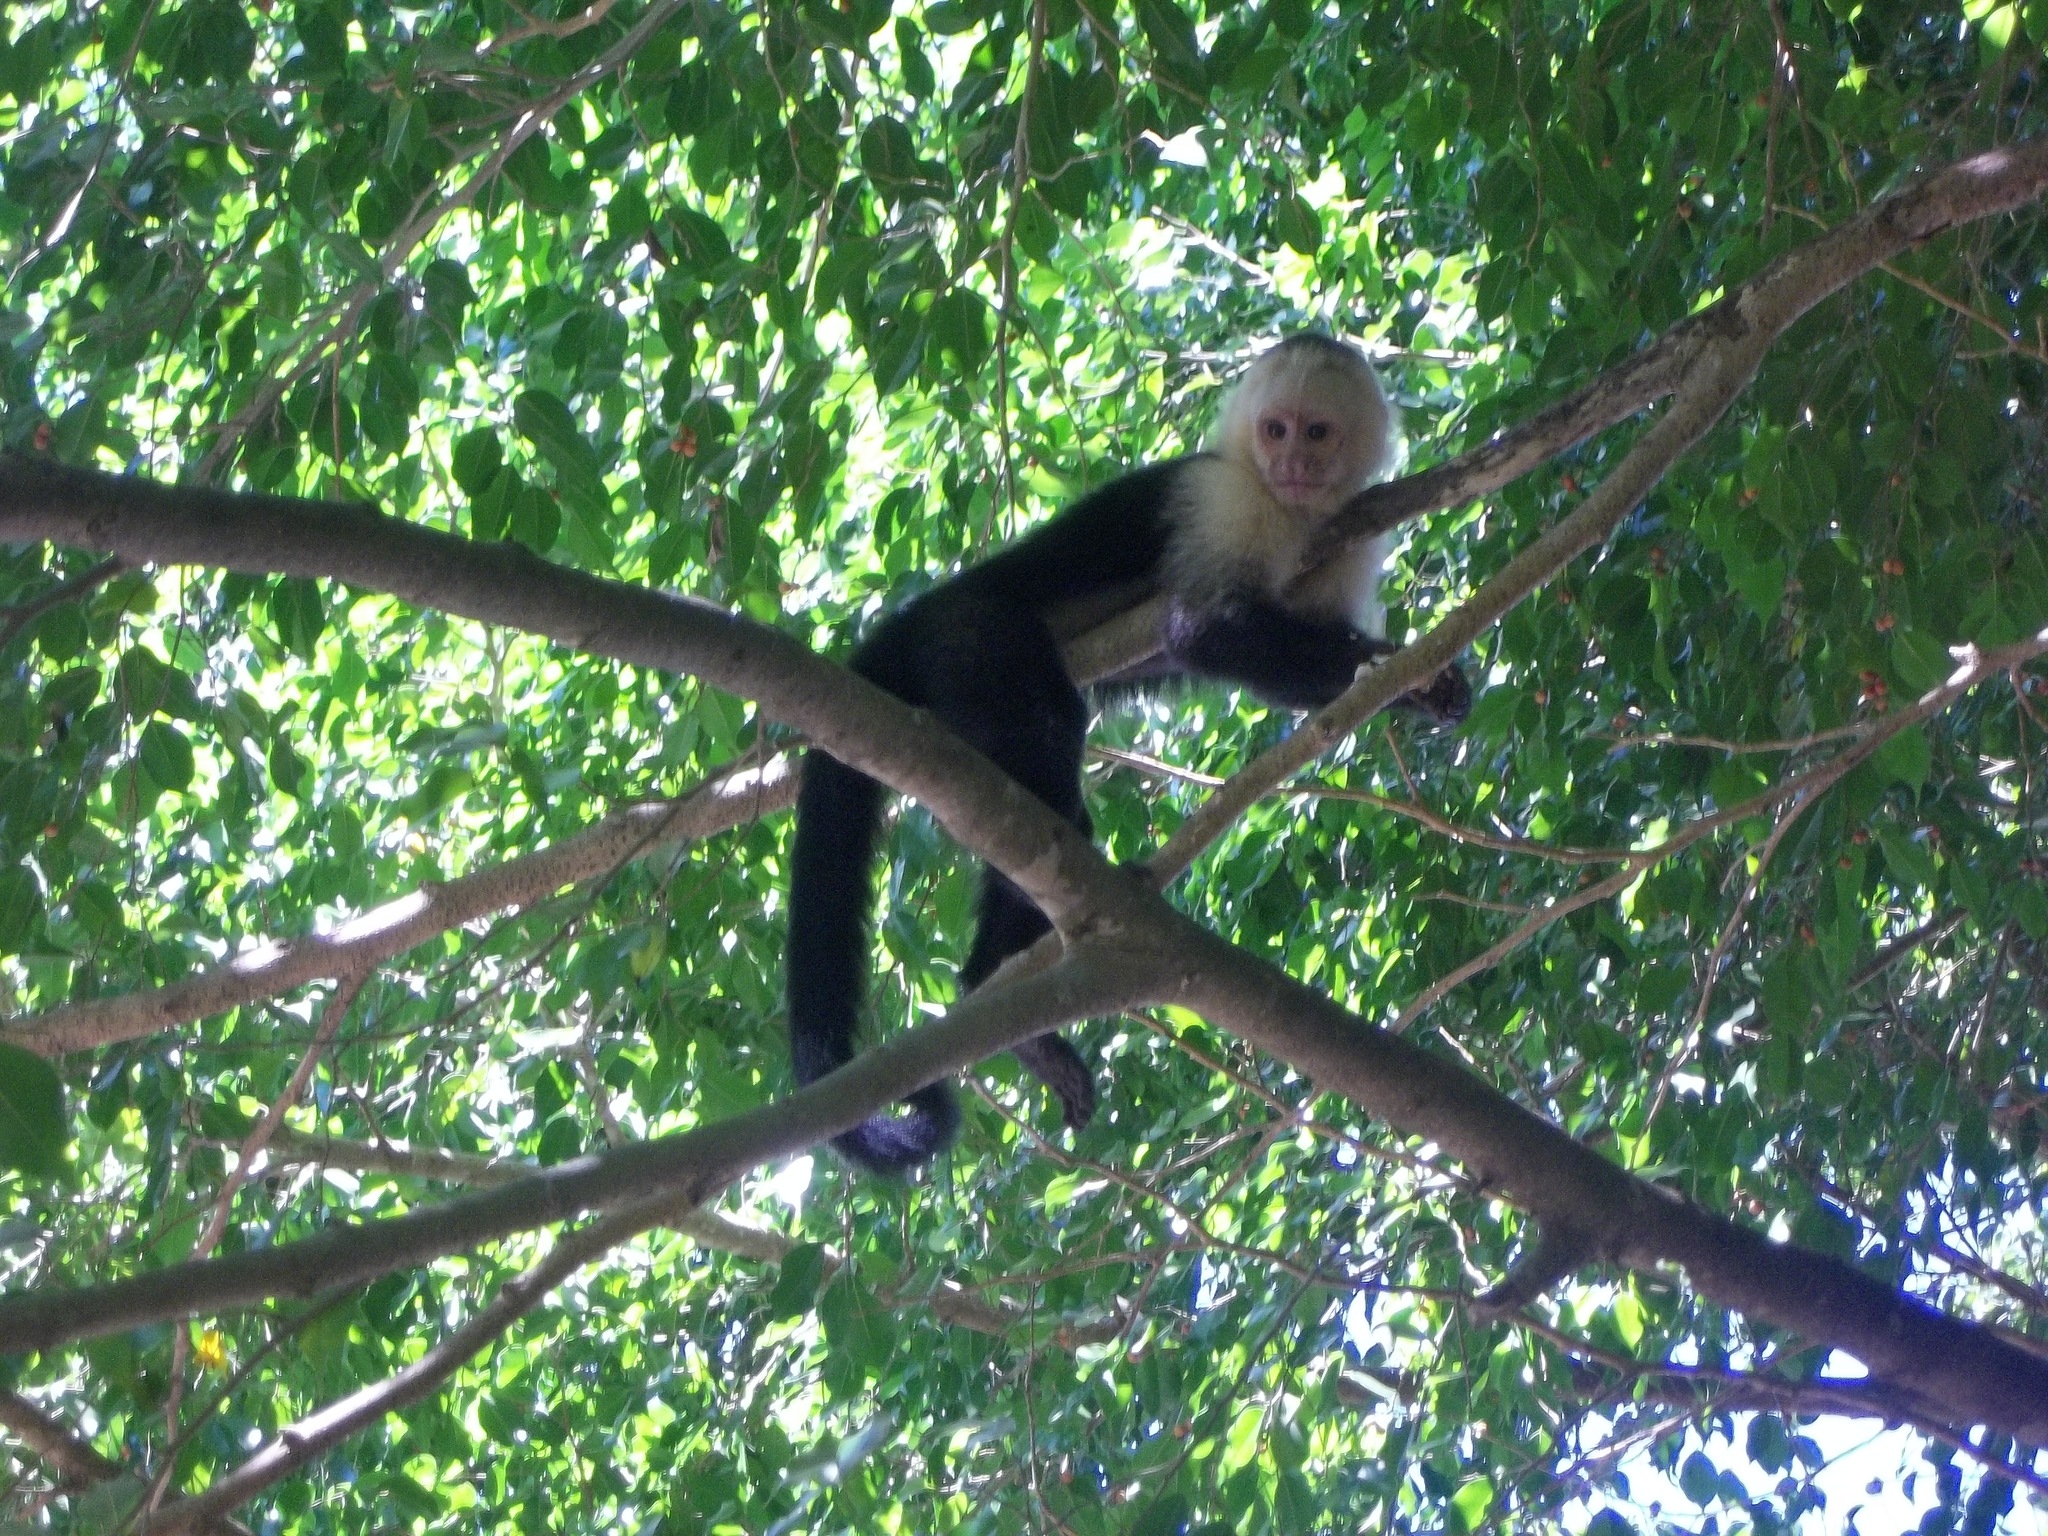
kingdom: Animalia
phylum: Chordata
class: Mammalia
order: Primates
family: Cebidae
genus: Cebus
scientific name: Cebus imitator
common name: Panamanian white-faced capuchin
